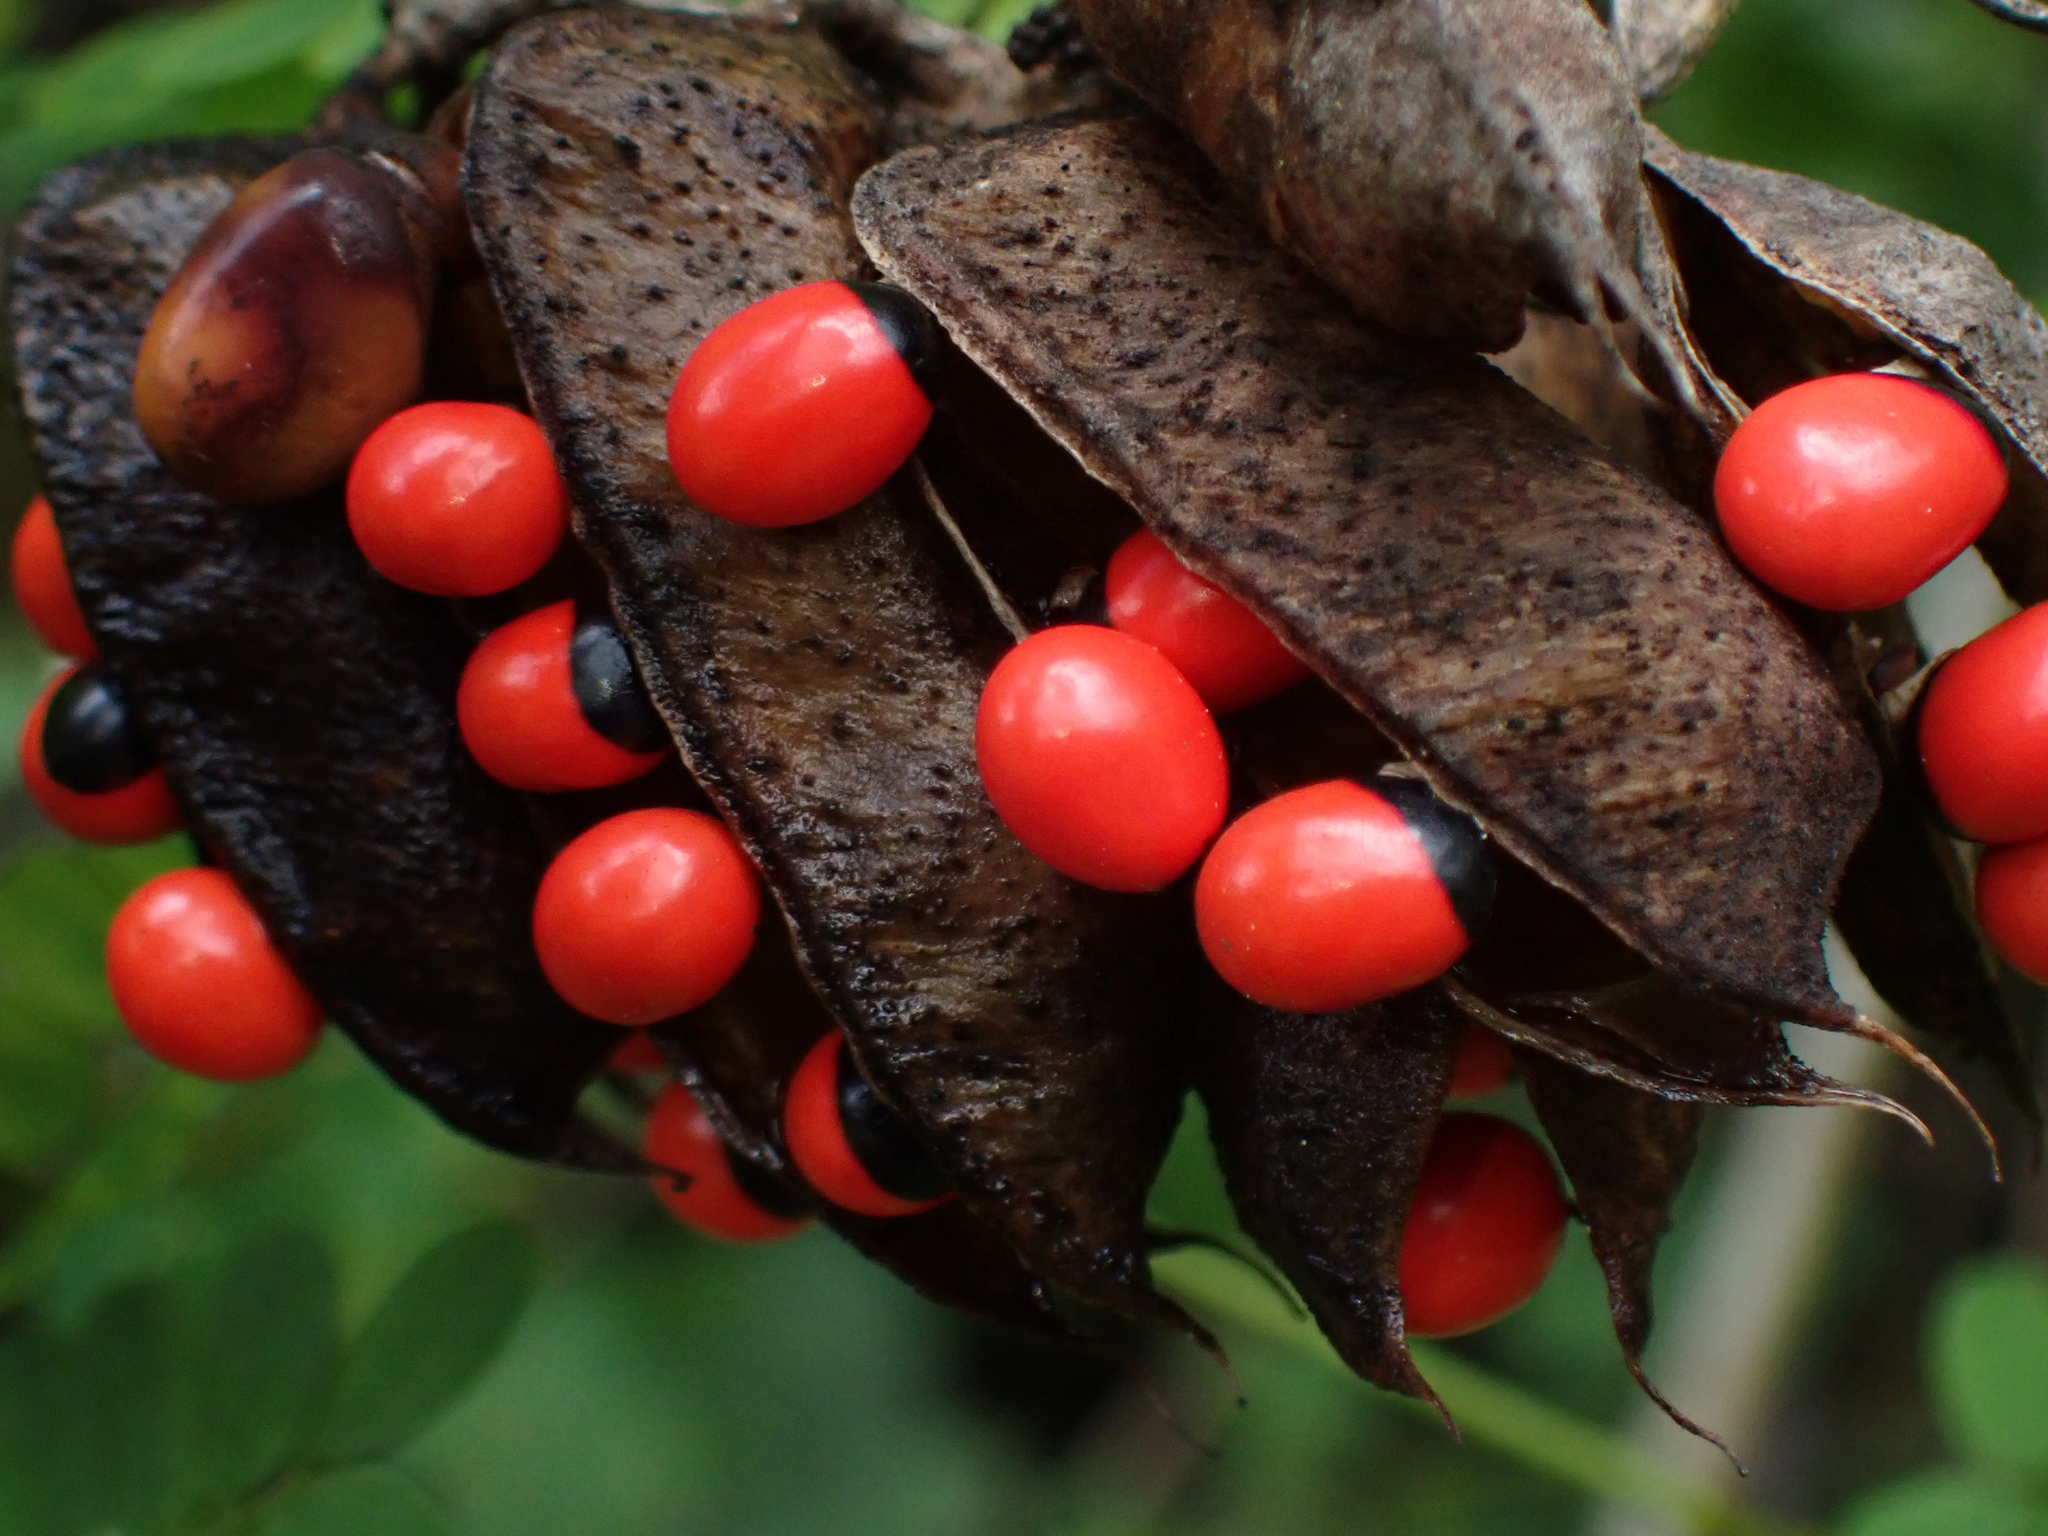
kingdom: Plantae
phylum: Tracheophyta
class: Magnoliopsida
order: Fabales
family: Fabaceae
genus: Abrus
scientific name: Abrus precatorius
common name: Rosarypea
